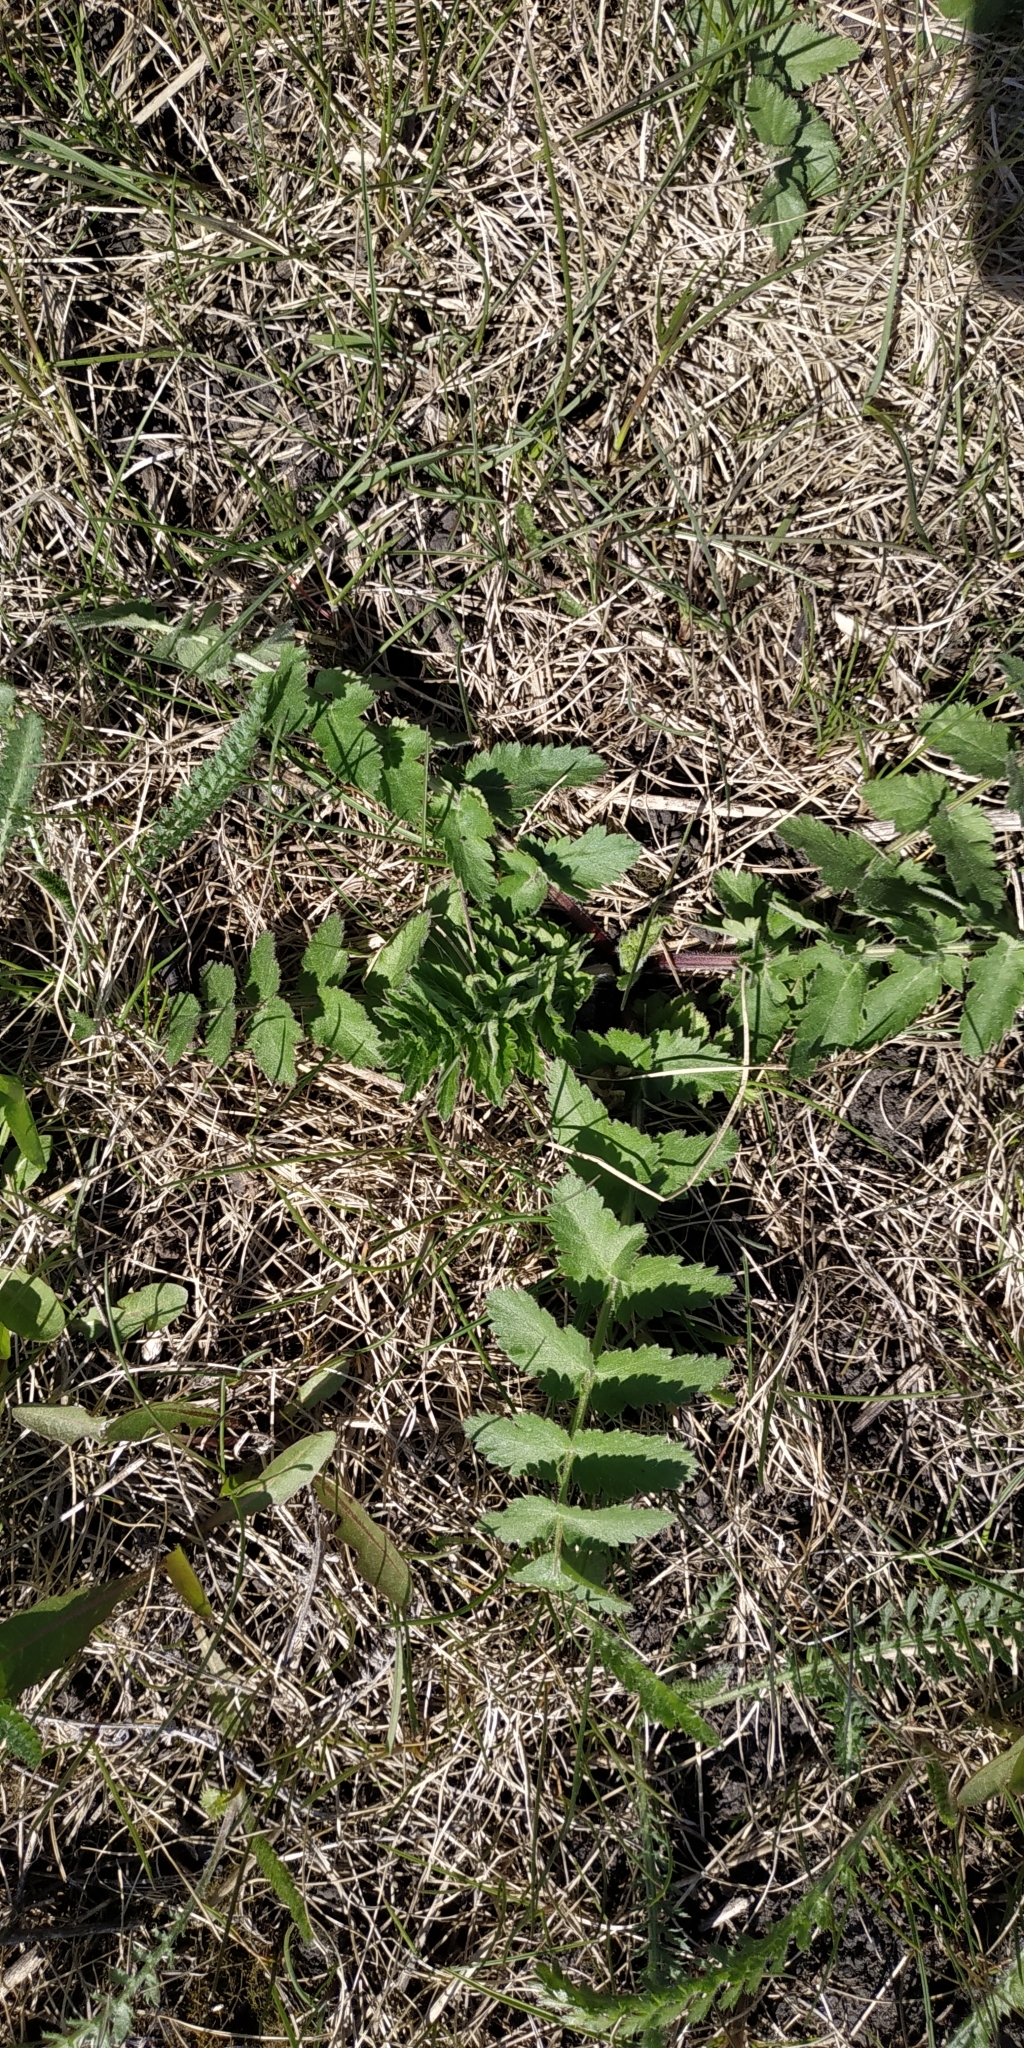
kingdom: Plantae
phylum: Tracheophyta
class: Magnoliopsida
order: Apiales
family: Apiaceae
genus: Pimpinella
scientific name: Pimpinella saxifraga
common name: Burnet-saxifrage
